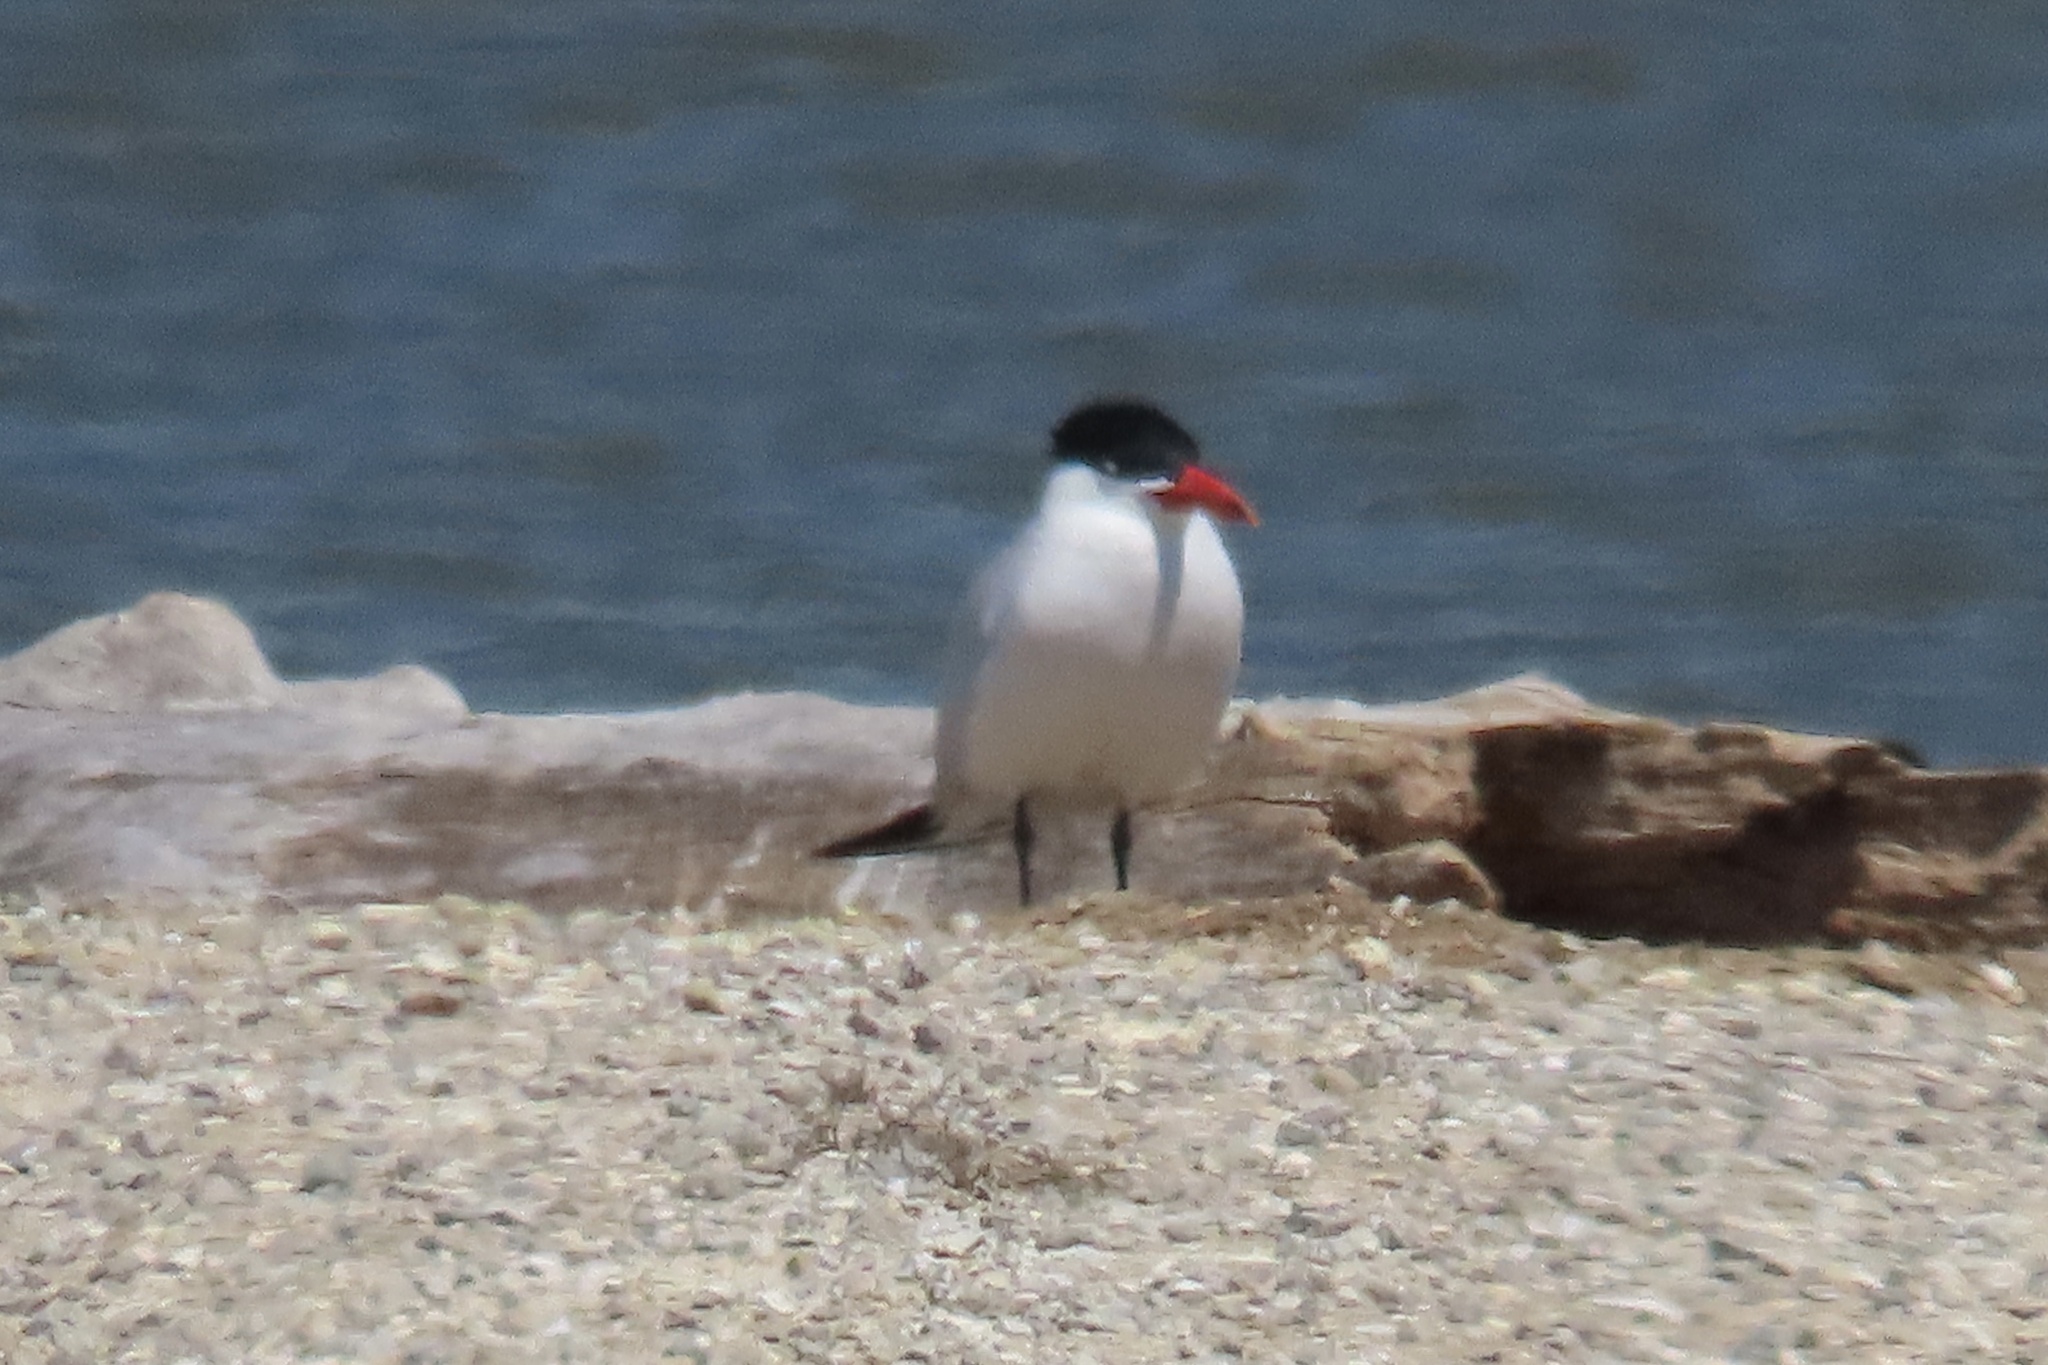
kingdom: Animalia
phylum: Chordata
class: Aves
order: Charadriiformes
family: Laridae
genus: Hydroprogne
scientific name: Hydroprogne caspia
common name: Caspian tern
